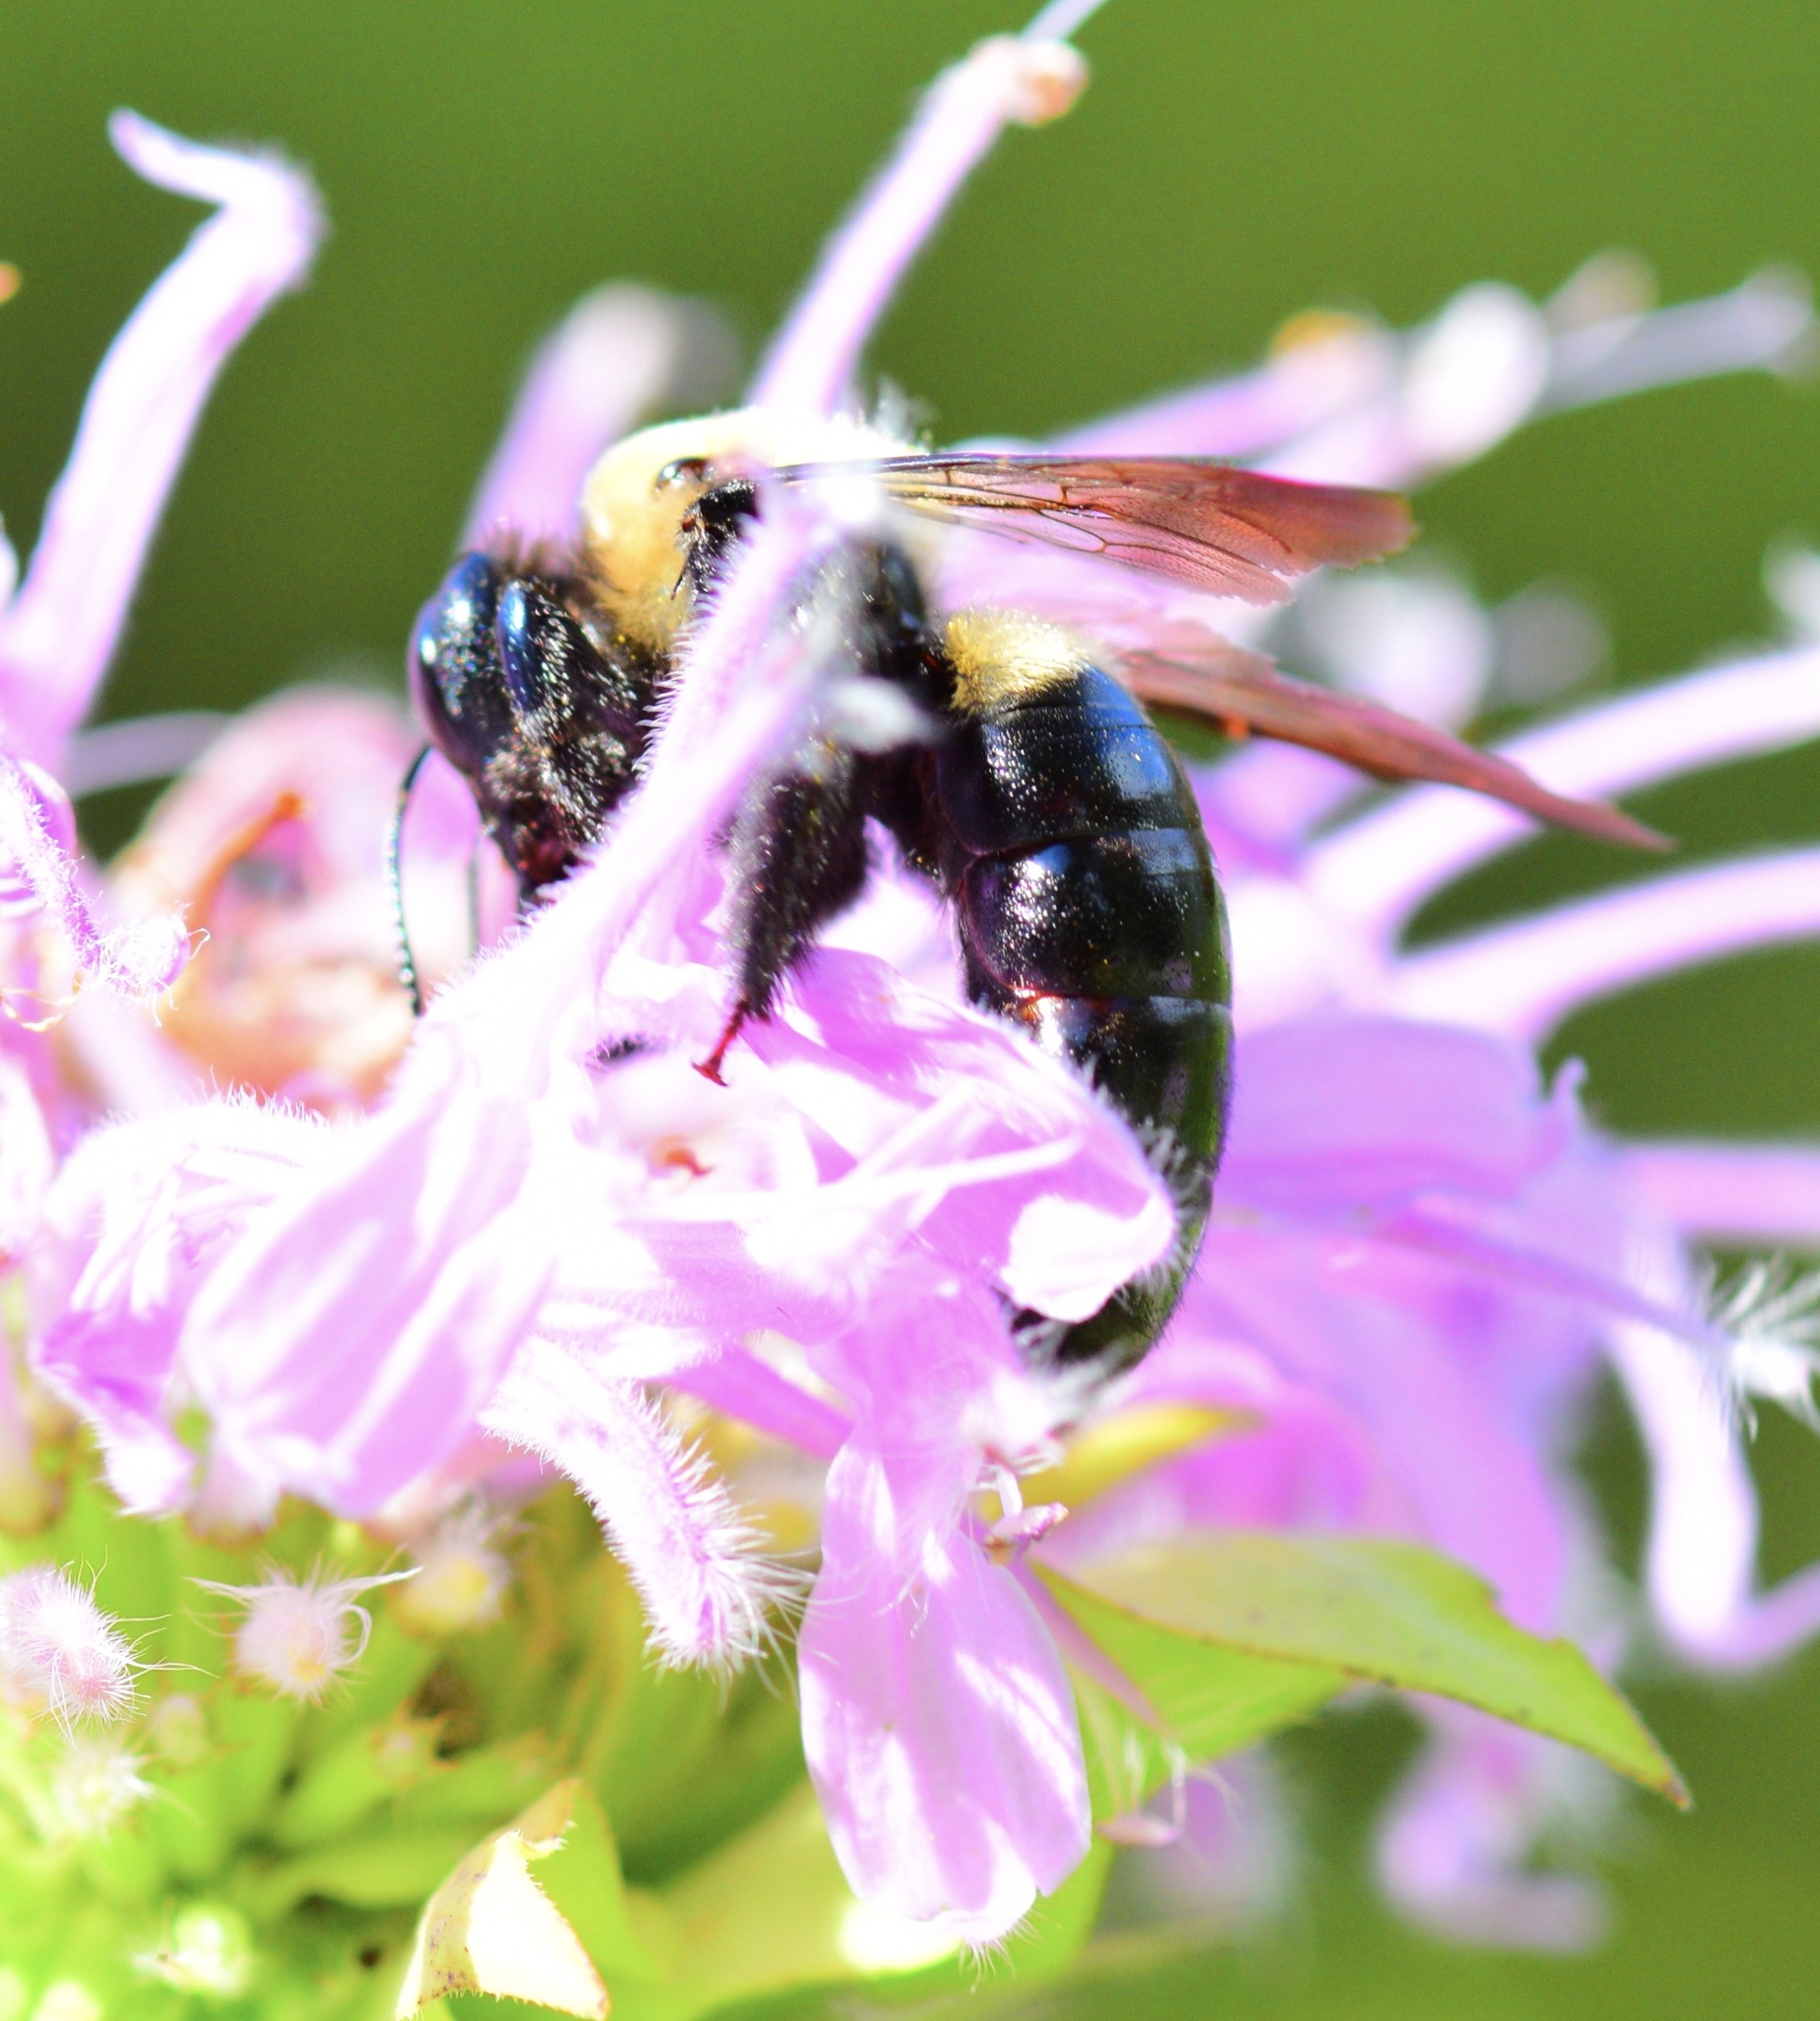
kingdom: Animalia
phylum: Arthropoda
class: Insecta
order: Hymenoptera
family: Apidae
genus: Xylocopa
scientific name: Xylocopa virginica
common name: Carpenter bee
